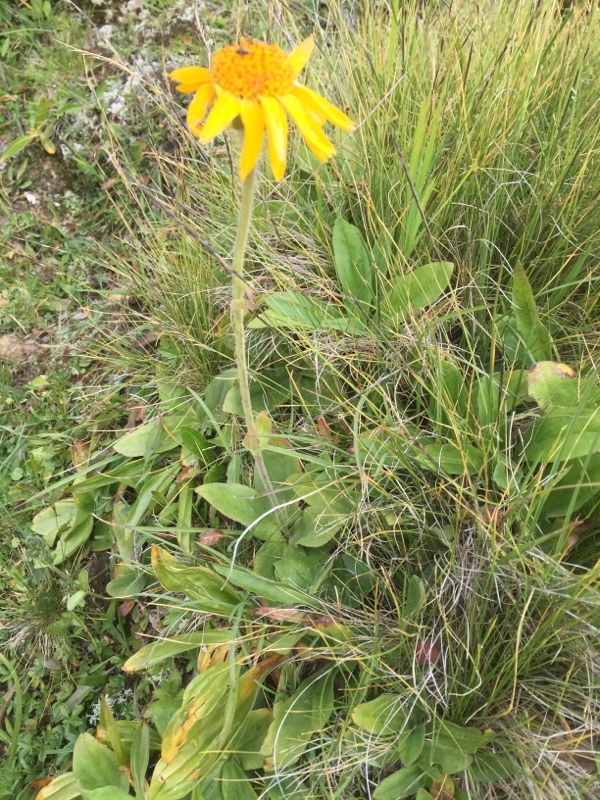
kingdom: Plantae
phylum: Tracheophyta
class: Magnoliopsida
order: Asterales
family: Asteraceae
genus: Arnica
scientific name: Arnica montana
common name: Leopard's bane
